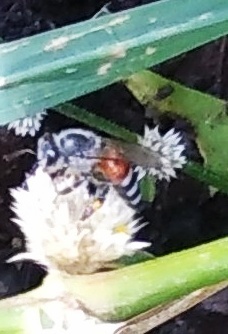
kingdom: Animalia
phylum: Arthropoda
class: Insecta
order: Hymenoptera
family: Apidae
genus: Apis
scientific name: Apis florea
